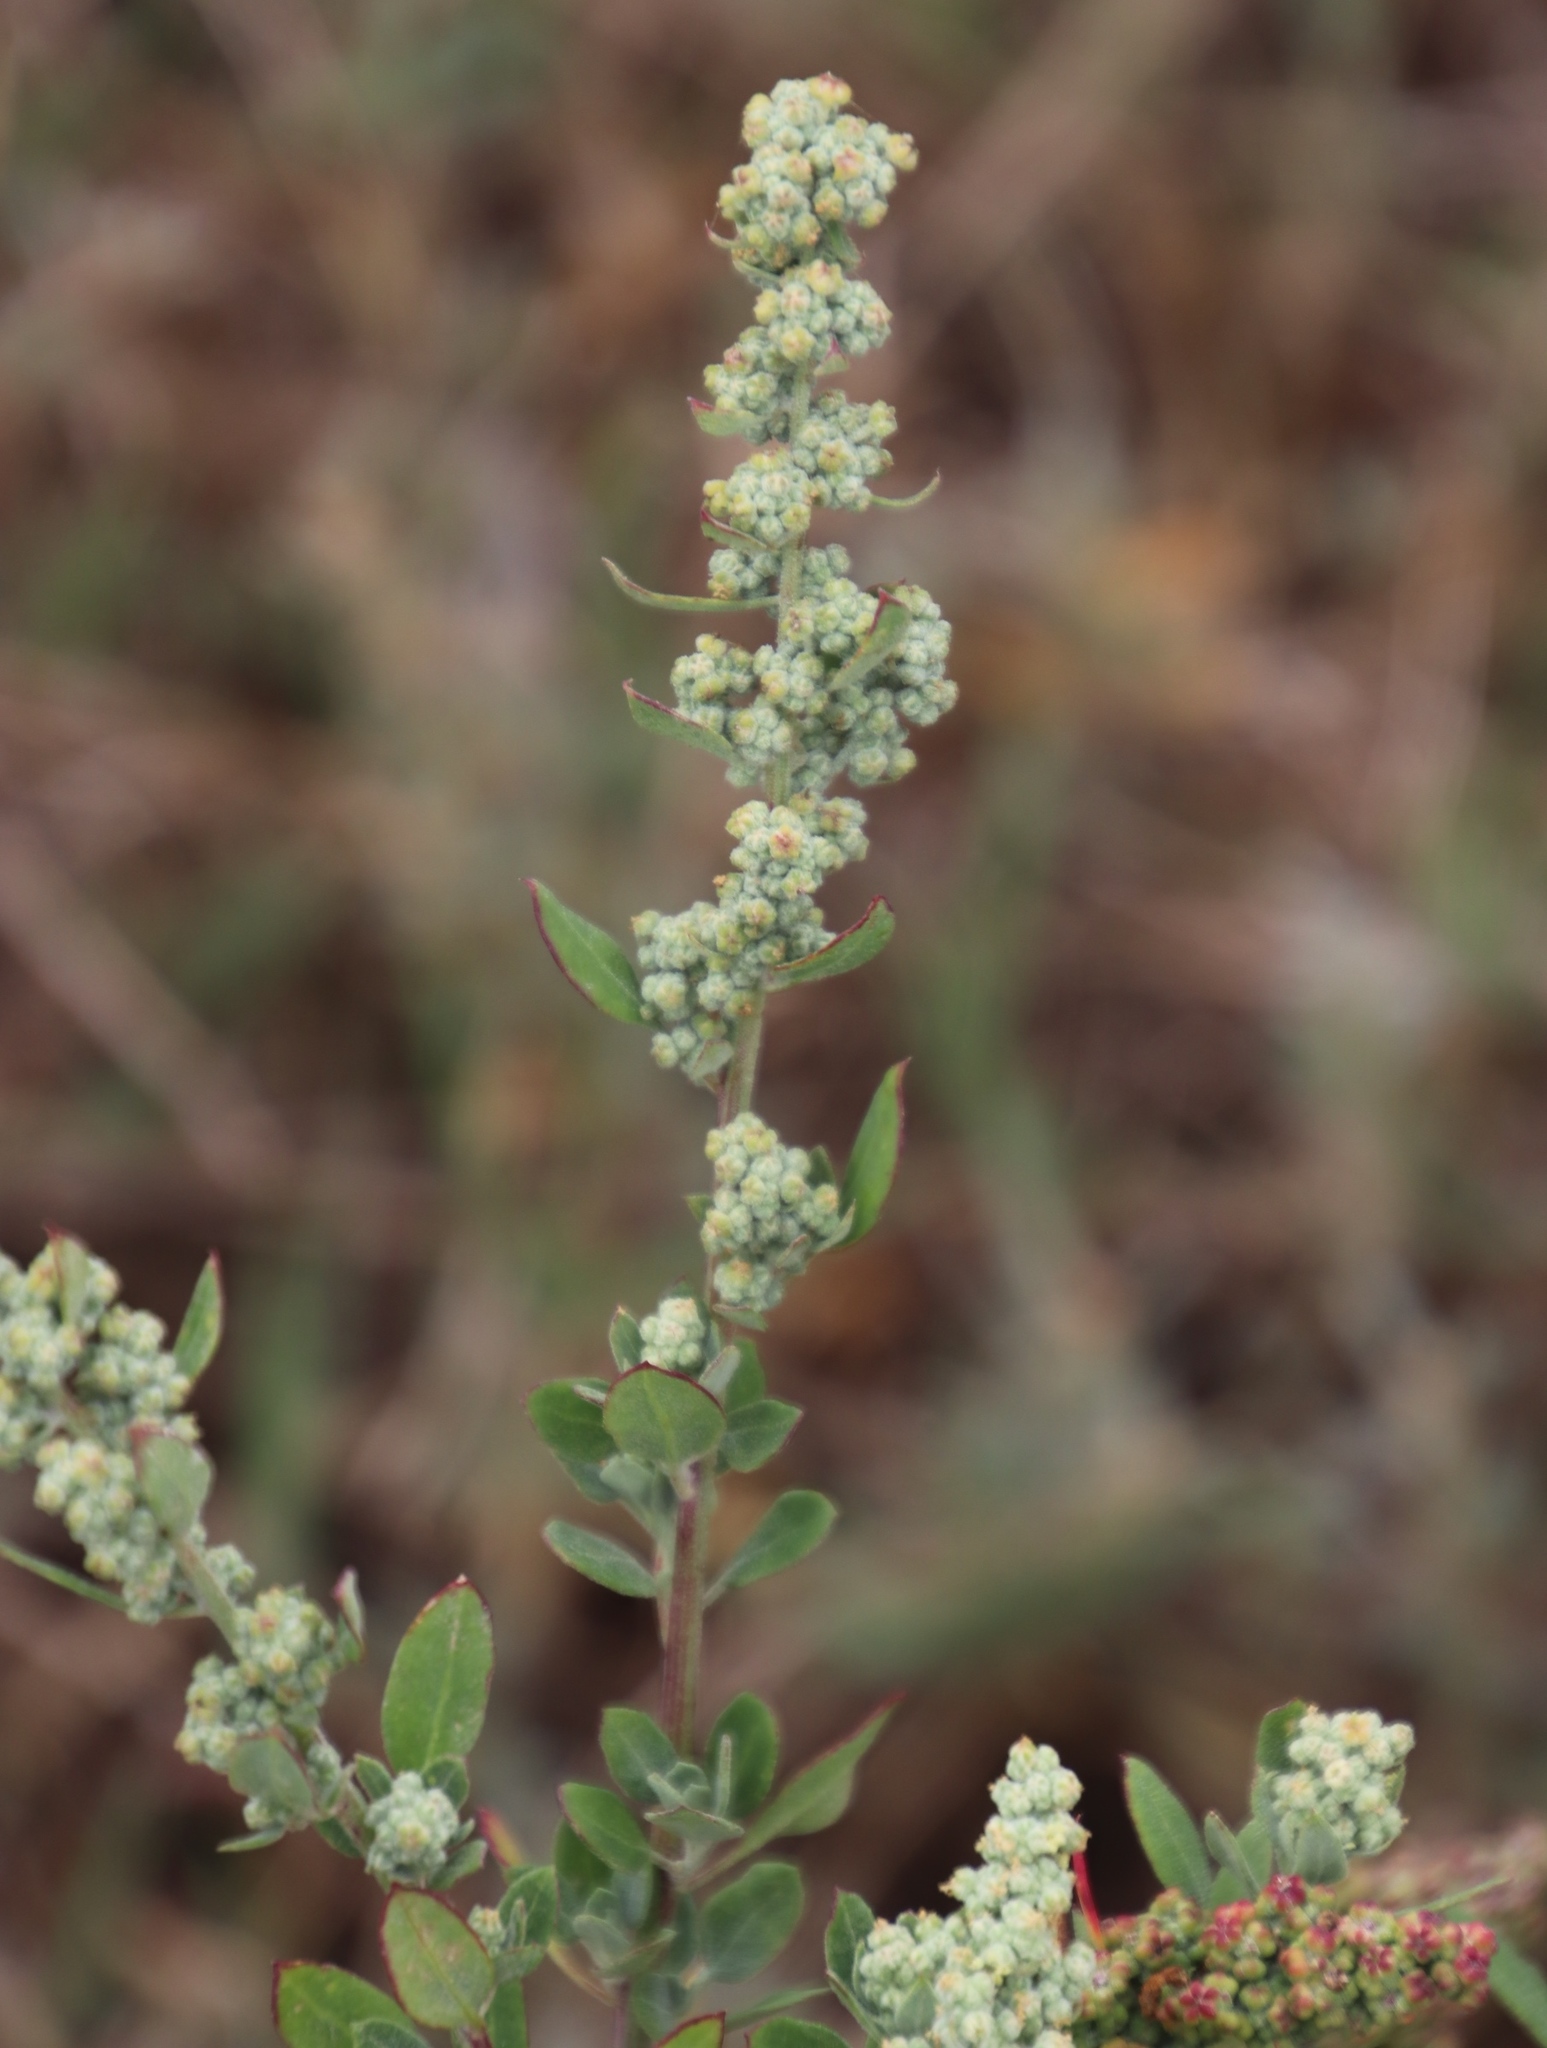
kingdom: Plantae
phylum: Tracheophyta
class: Magnoliopsida
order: Caryophyllales
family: Amaranthaceae
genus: Chenopodium
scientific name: Chenopodium album
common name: Fat-hen
